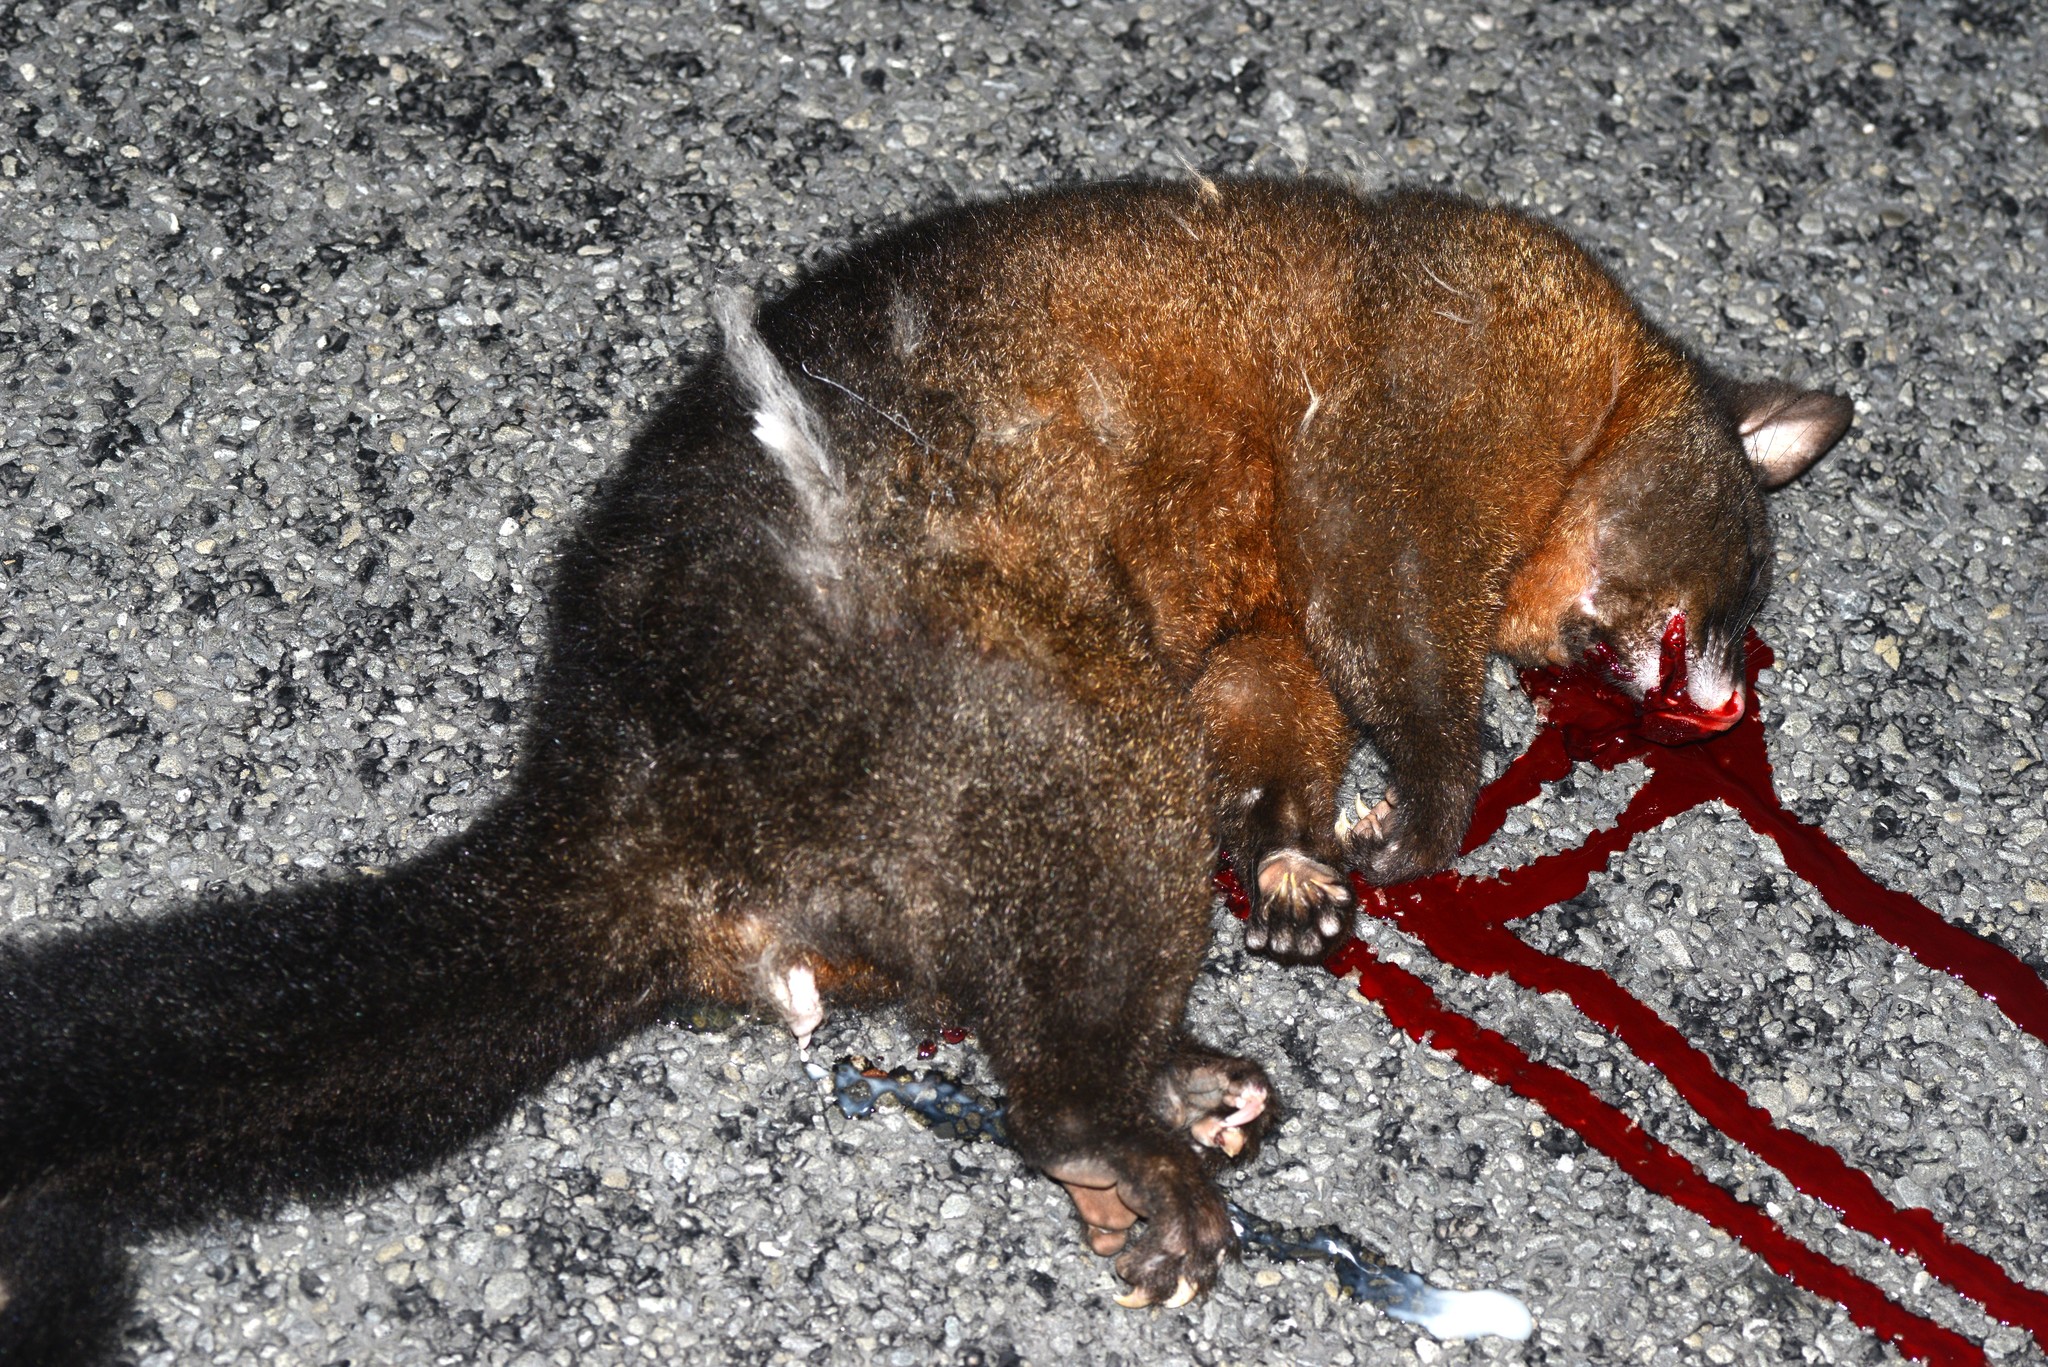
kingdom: Animalia
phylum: Chordata
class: Mammalia
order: Diprotodontia
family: Phalangeridae
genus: Trichosurus
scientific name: Trichosurus vulpecula
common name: Common brushtail
